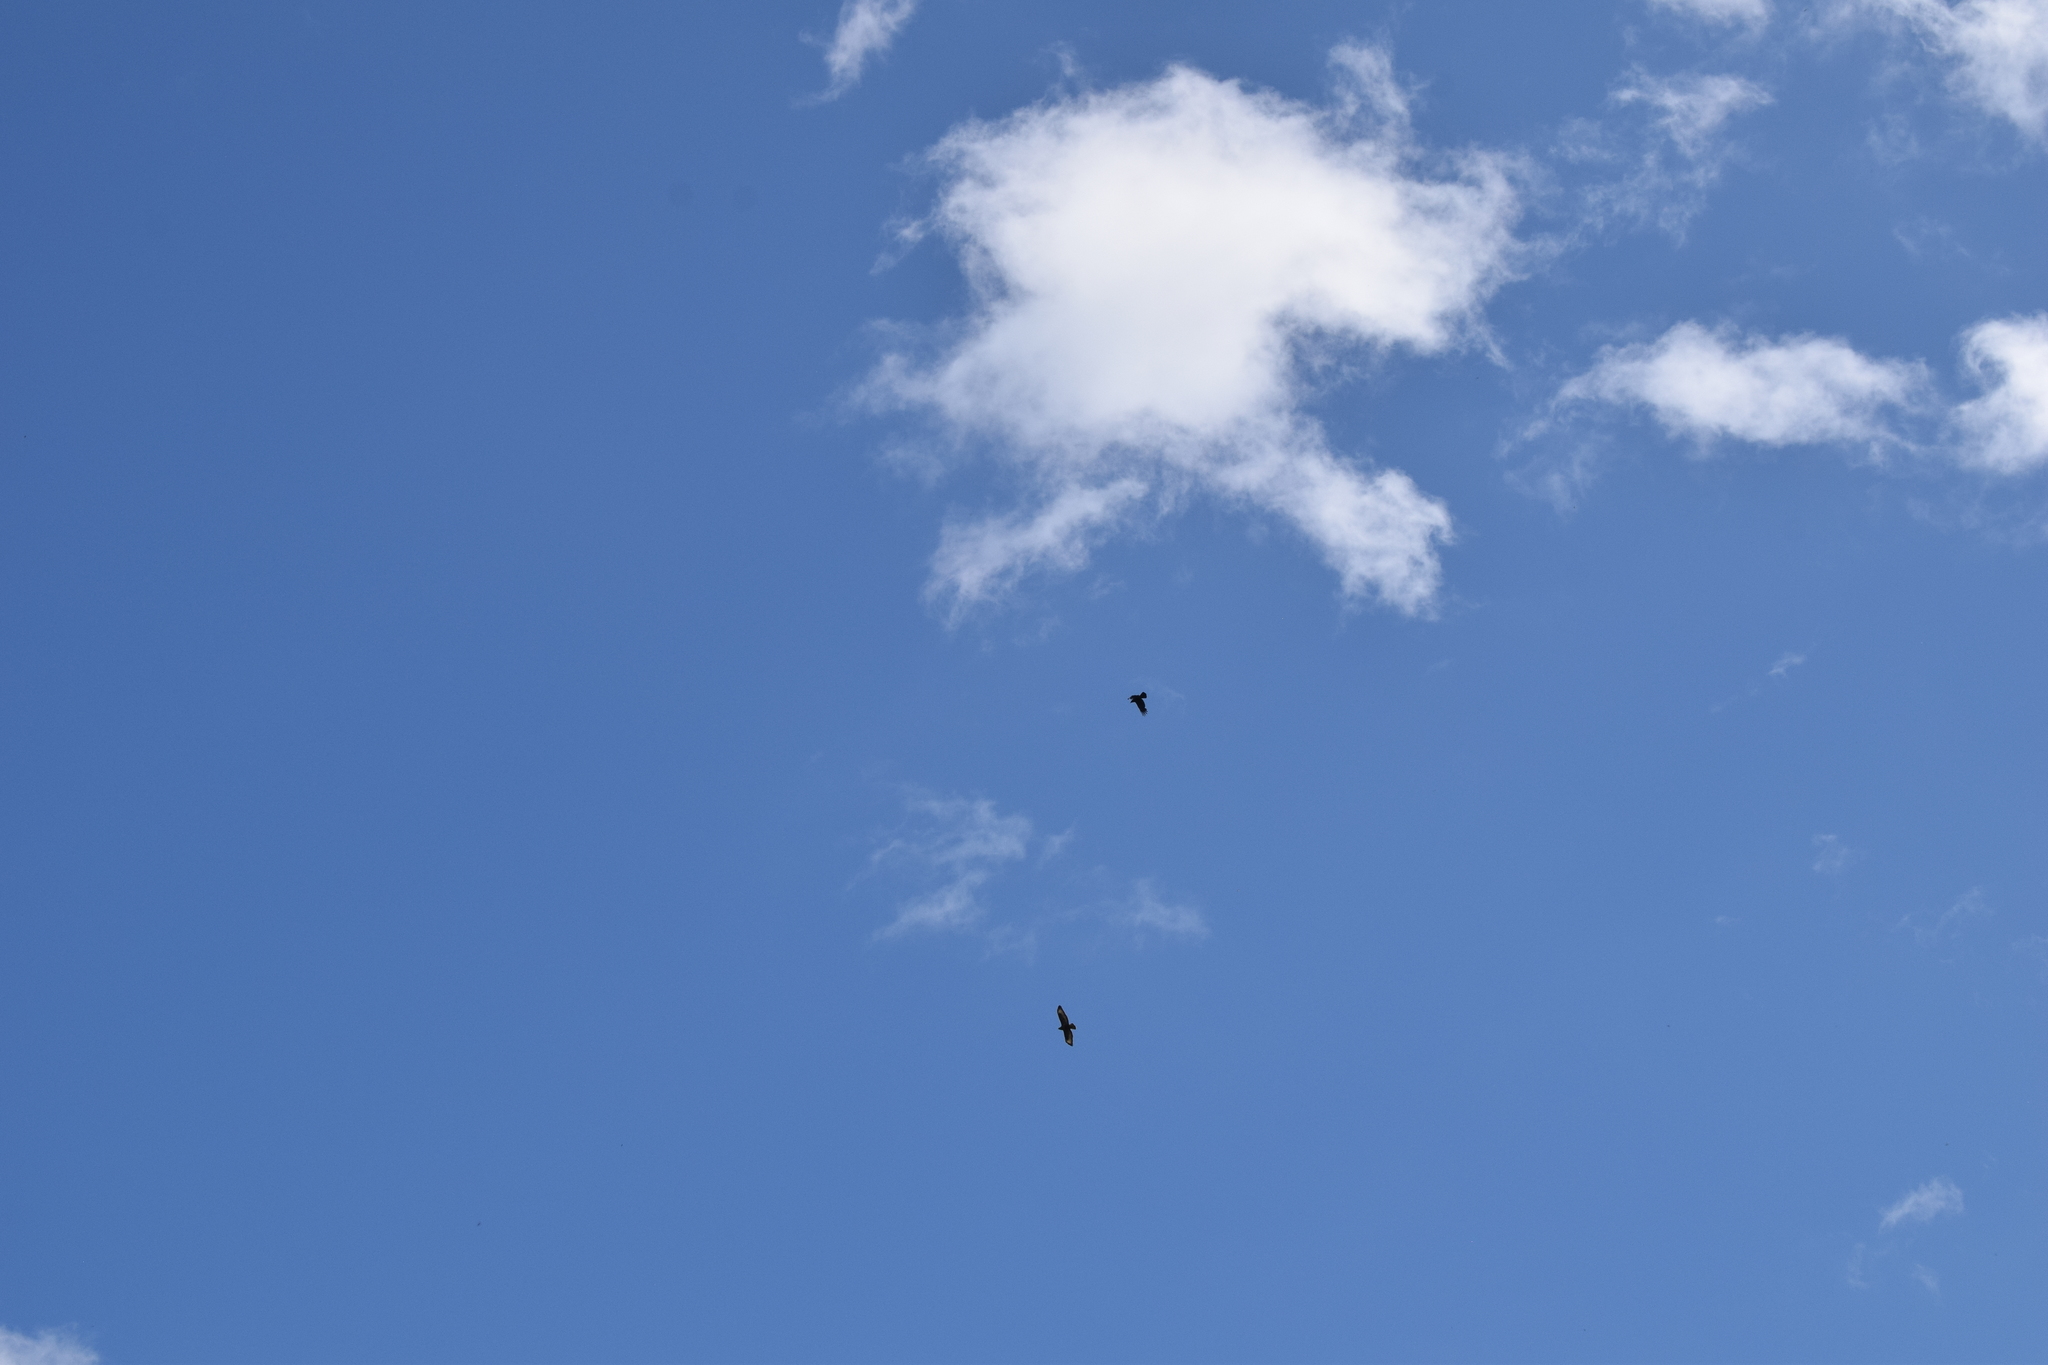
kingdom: Animalia
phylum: Chordata
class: Aves
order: Accipitriformes
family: Accipitridae
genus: Buteo
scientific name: Buteo buteo
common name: Common buzzard
